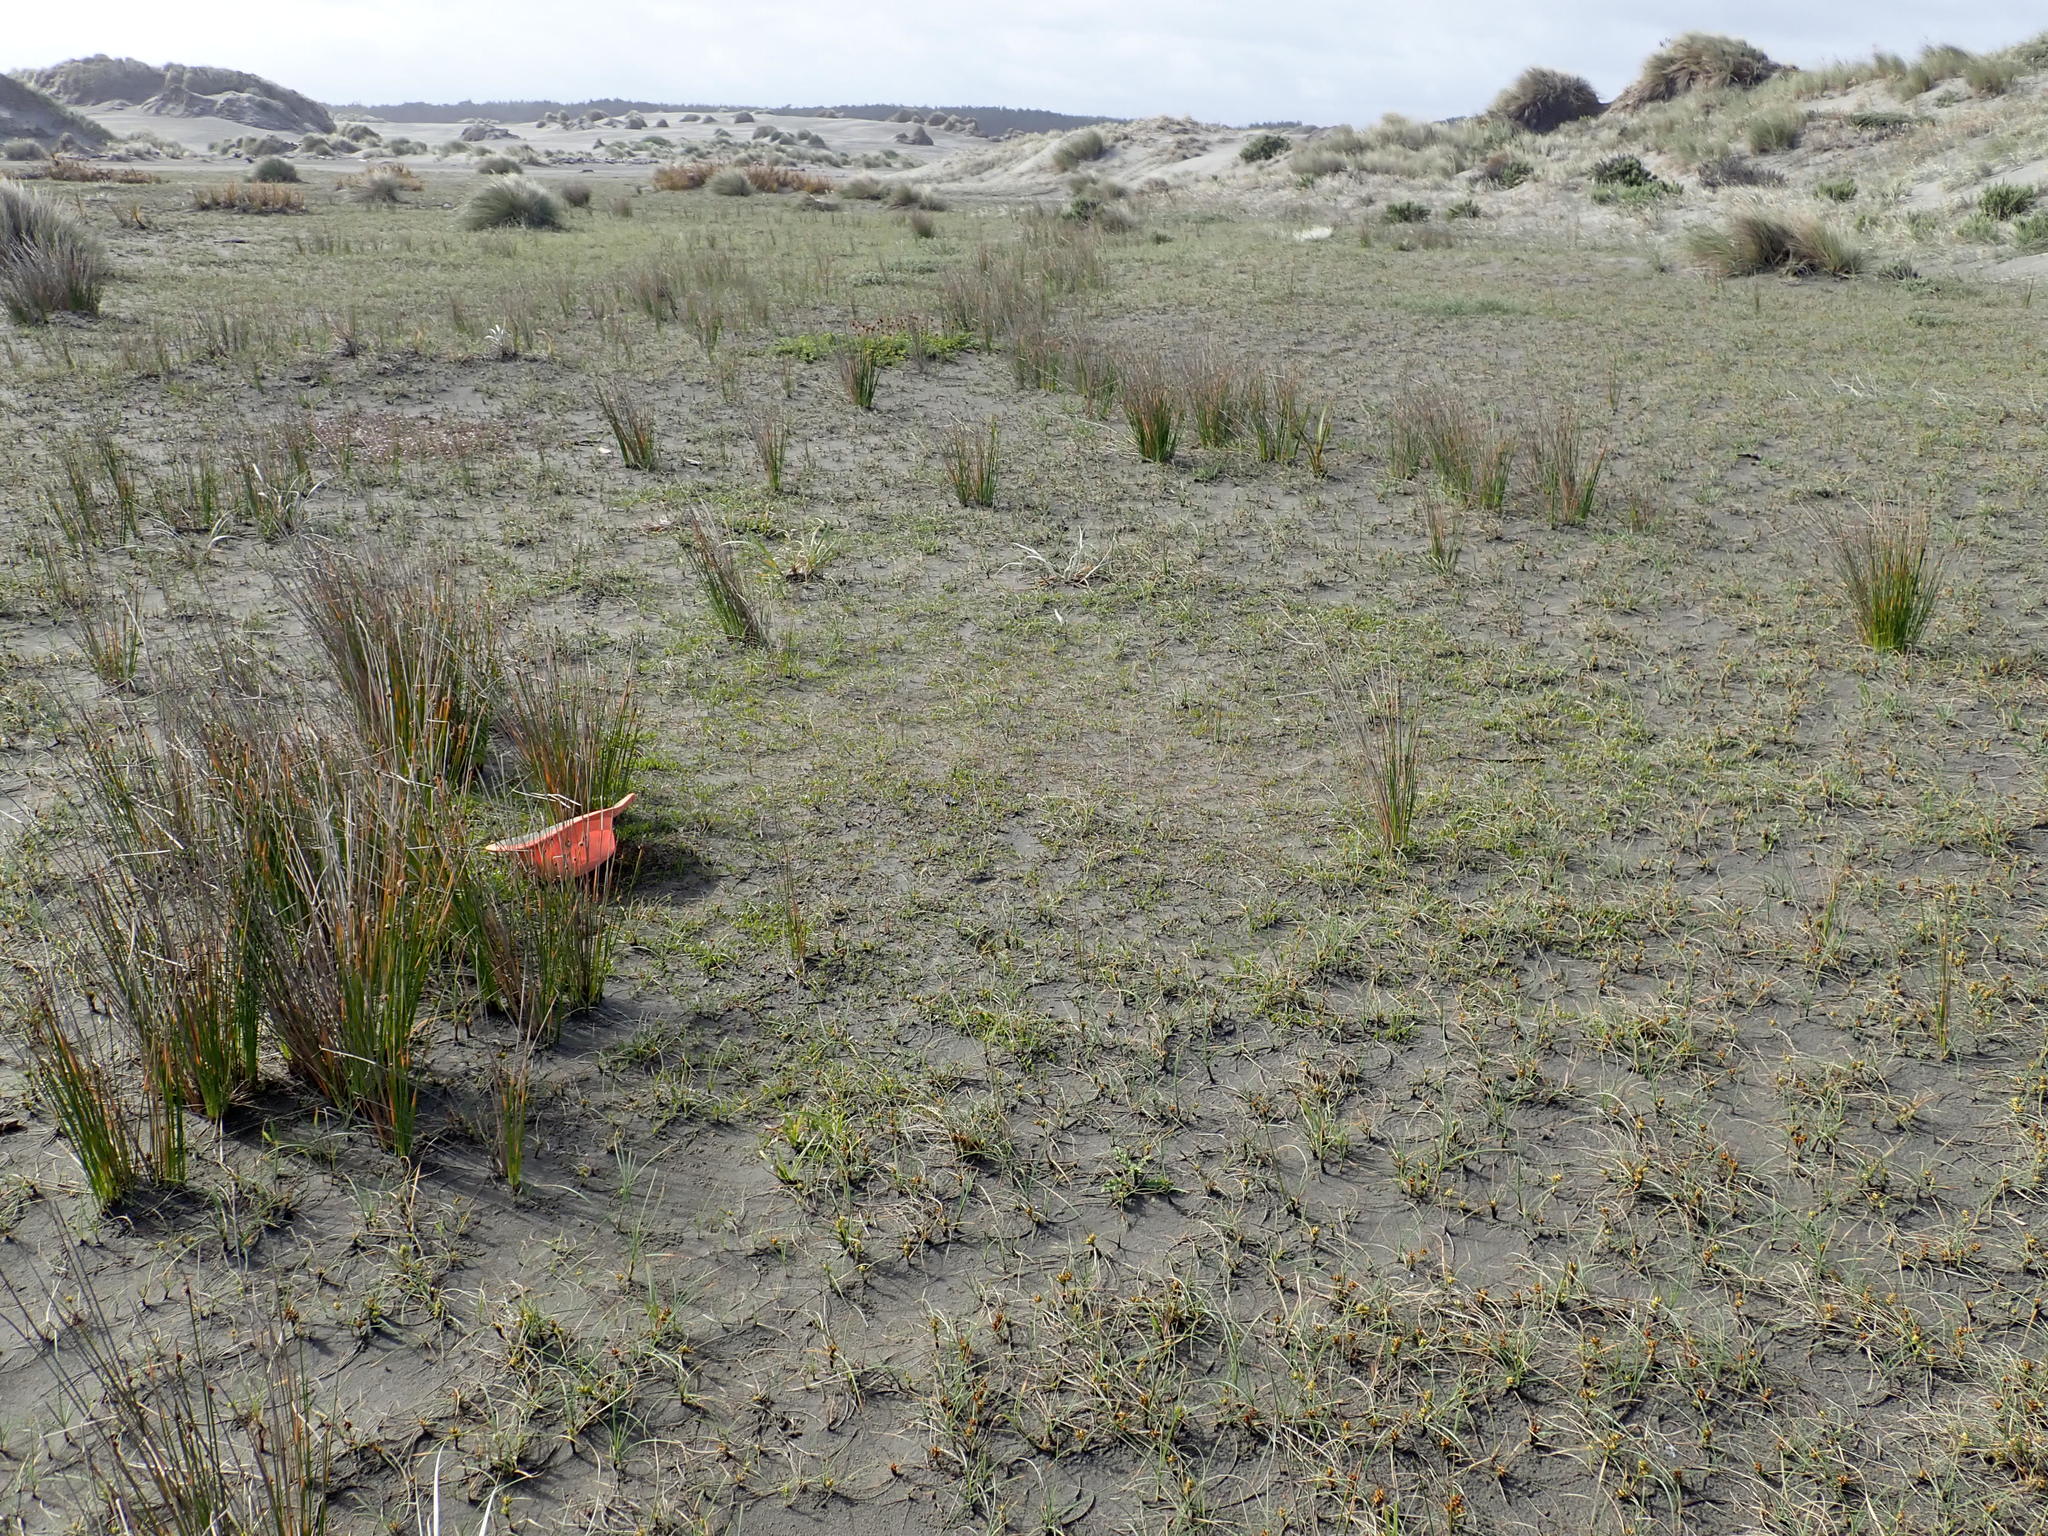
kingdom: Plantae
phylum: Tracheophyta
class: Magnoliopsida
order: Asterales
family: Goodeniaceae
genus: Goodenia
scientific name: Goodenia radicans
